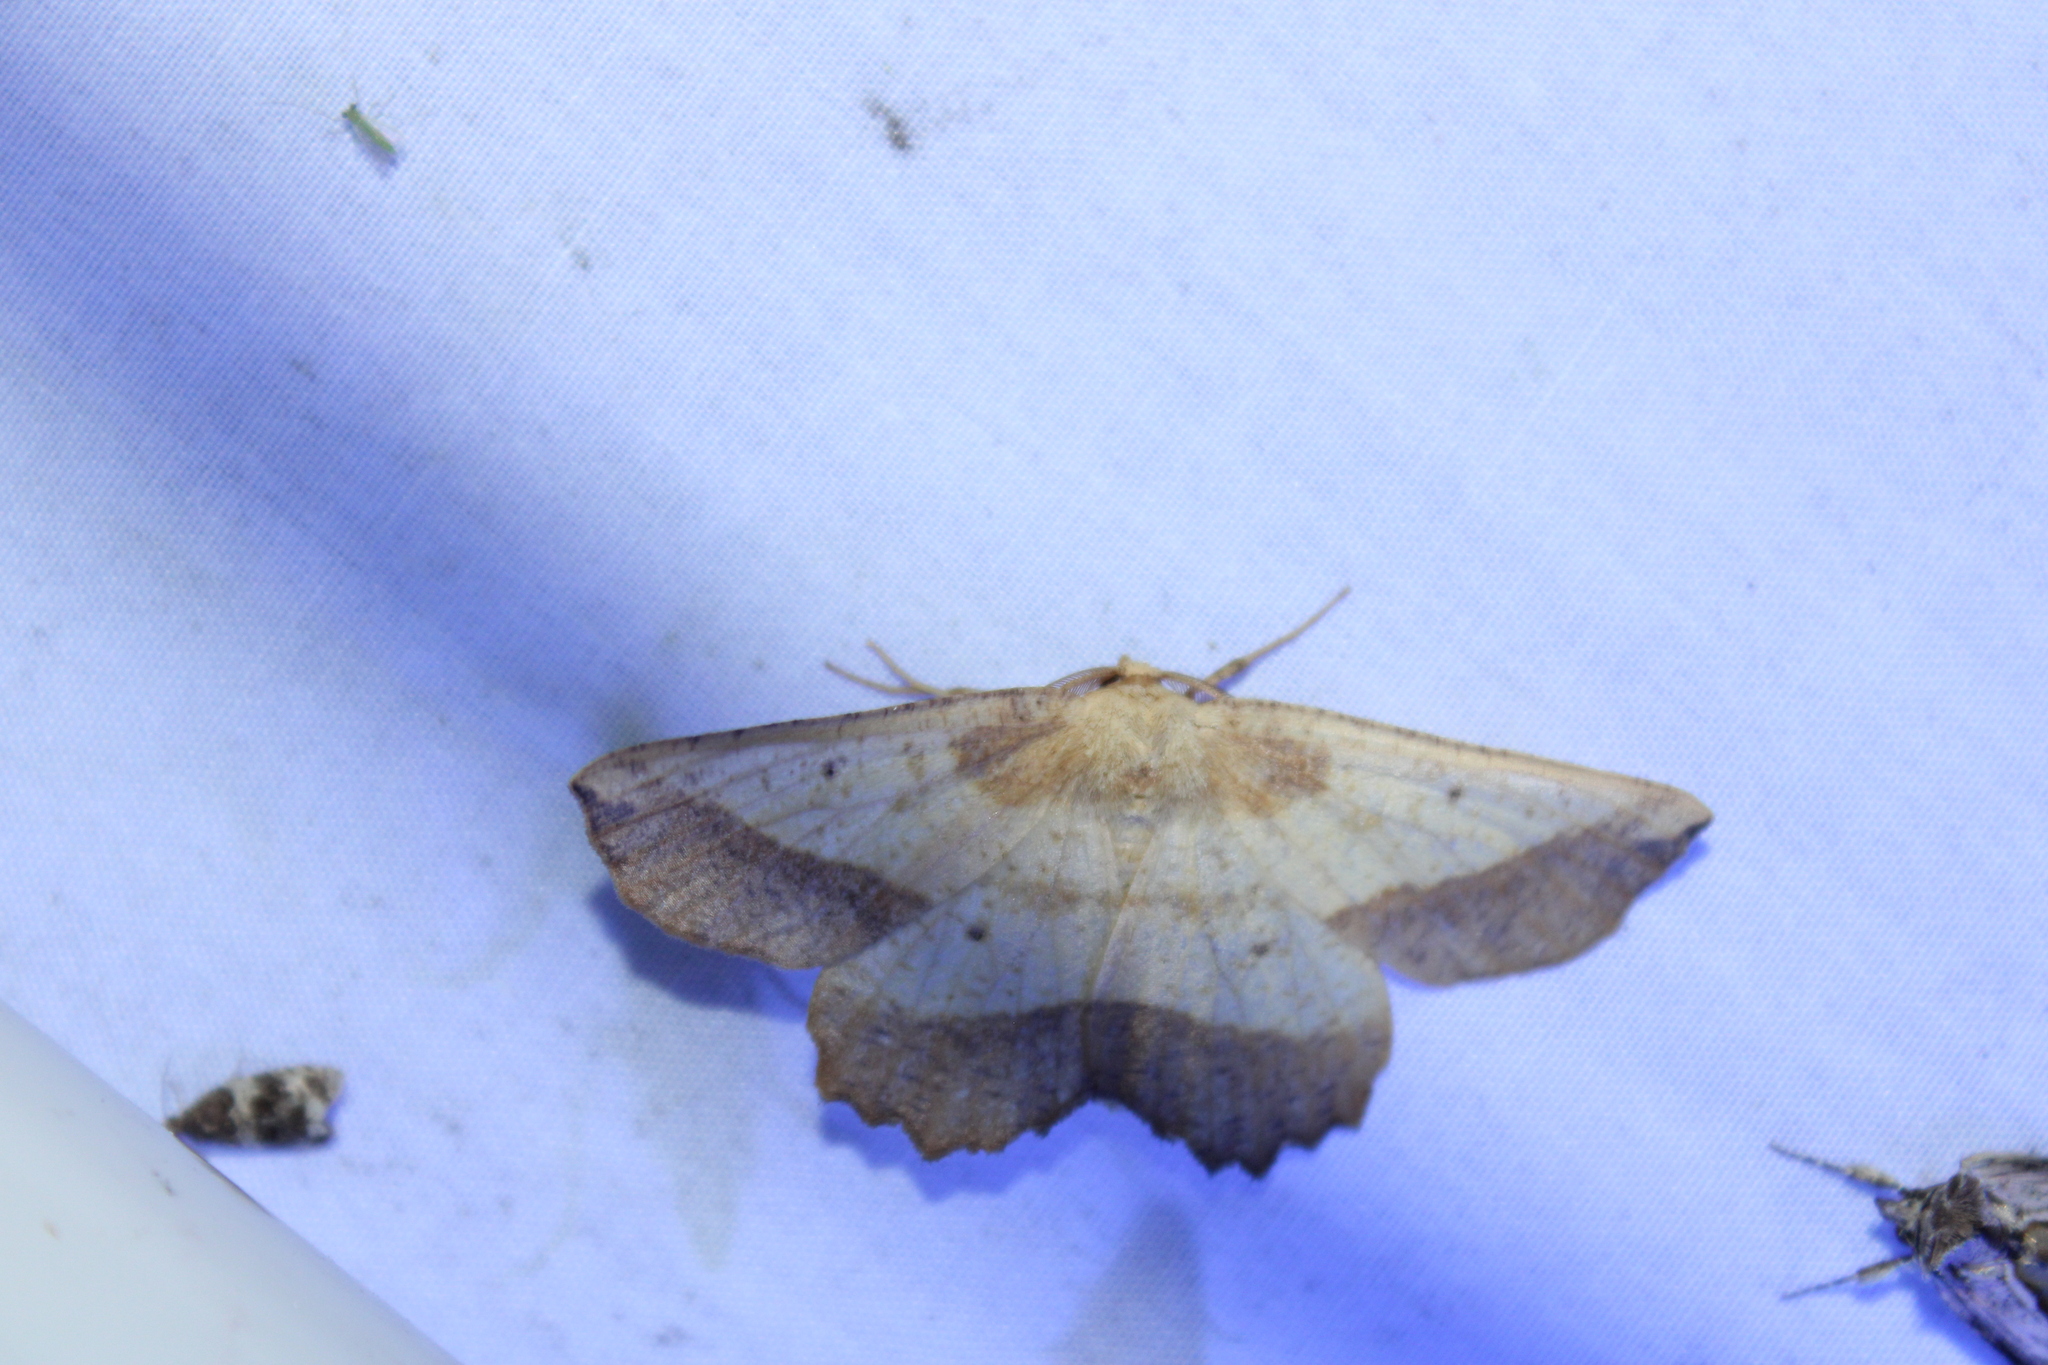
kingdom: Animalia
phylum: Arthropoda
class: Insecta
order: Lepidoptera
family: Geometridae
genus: Euchlaena
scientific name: Euchlaena serrata
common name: Saw wing
